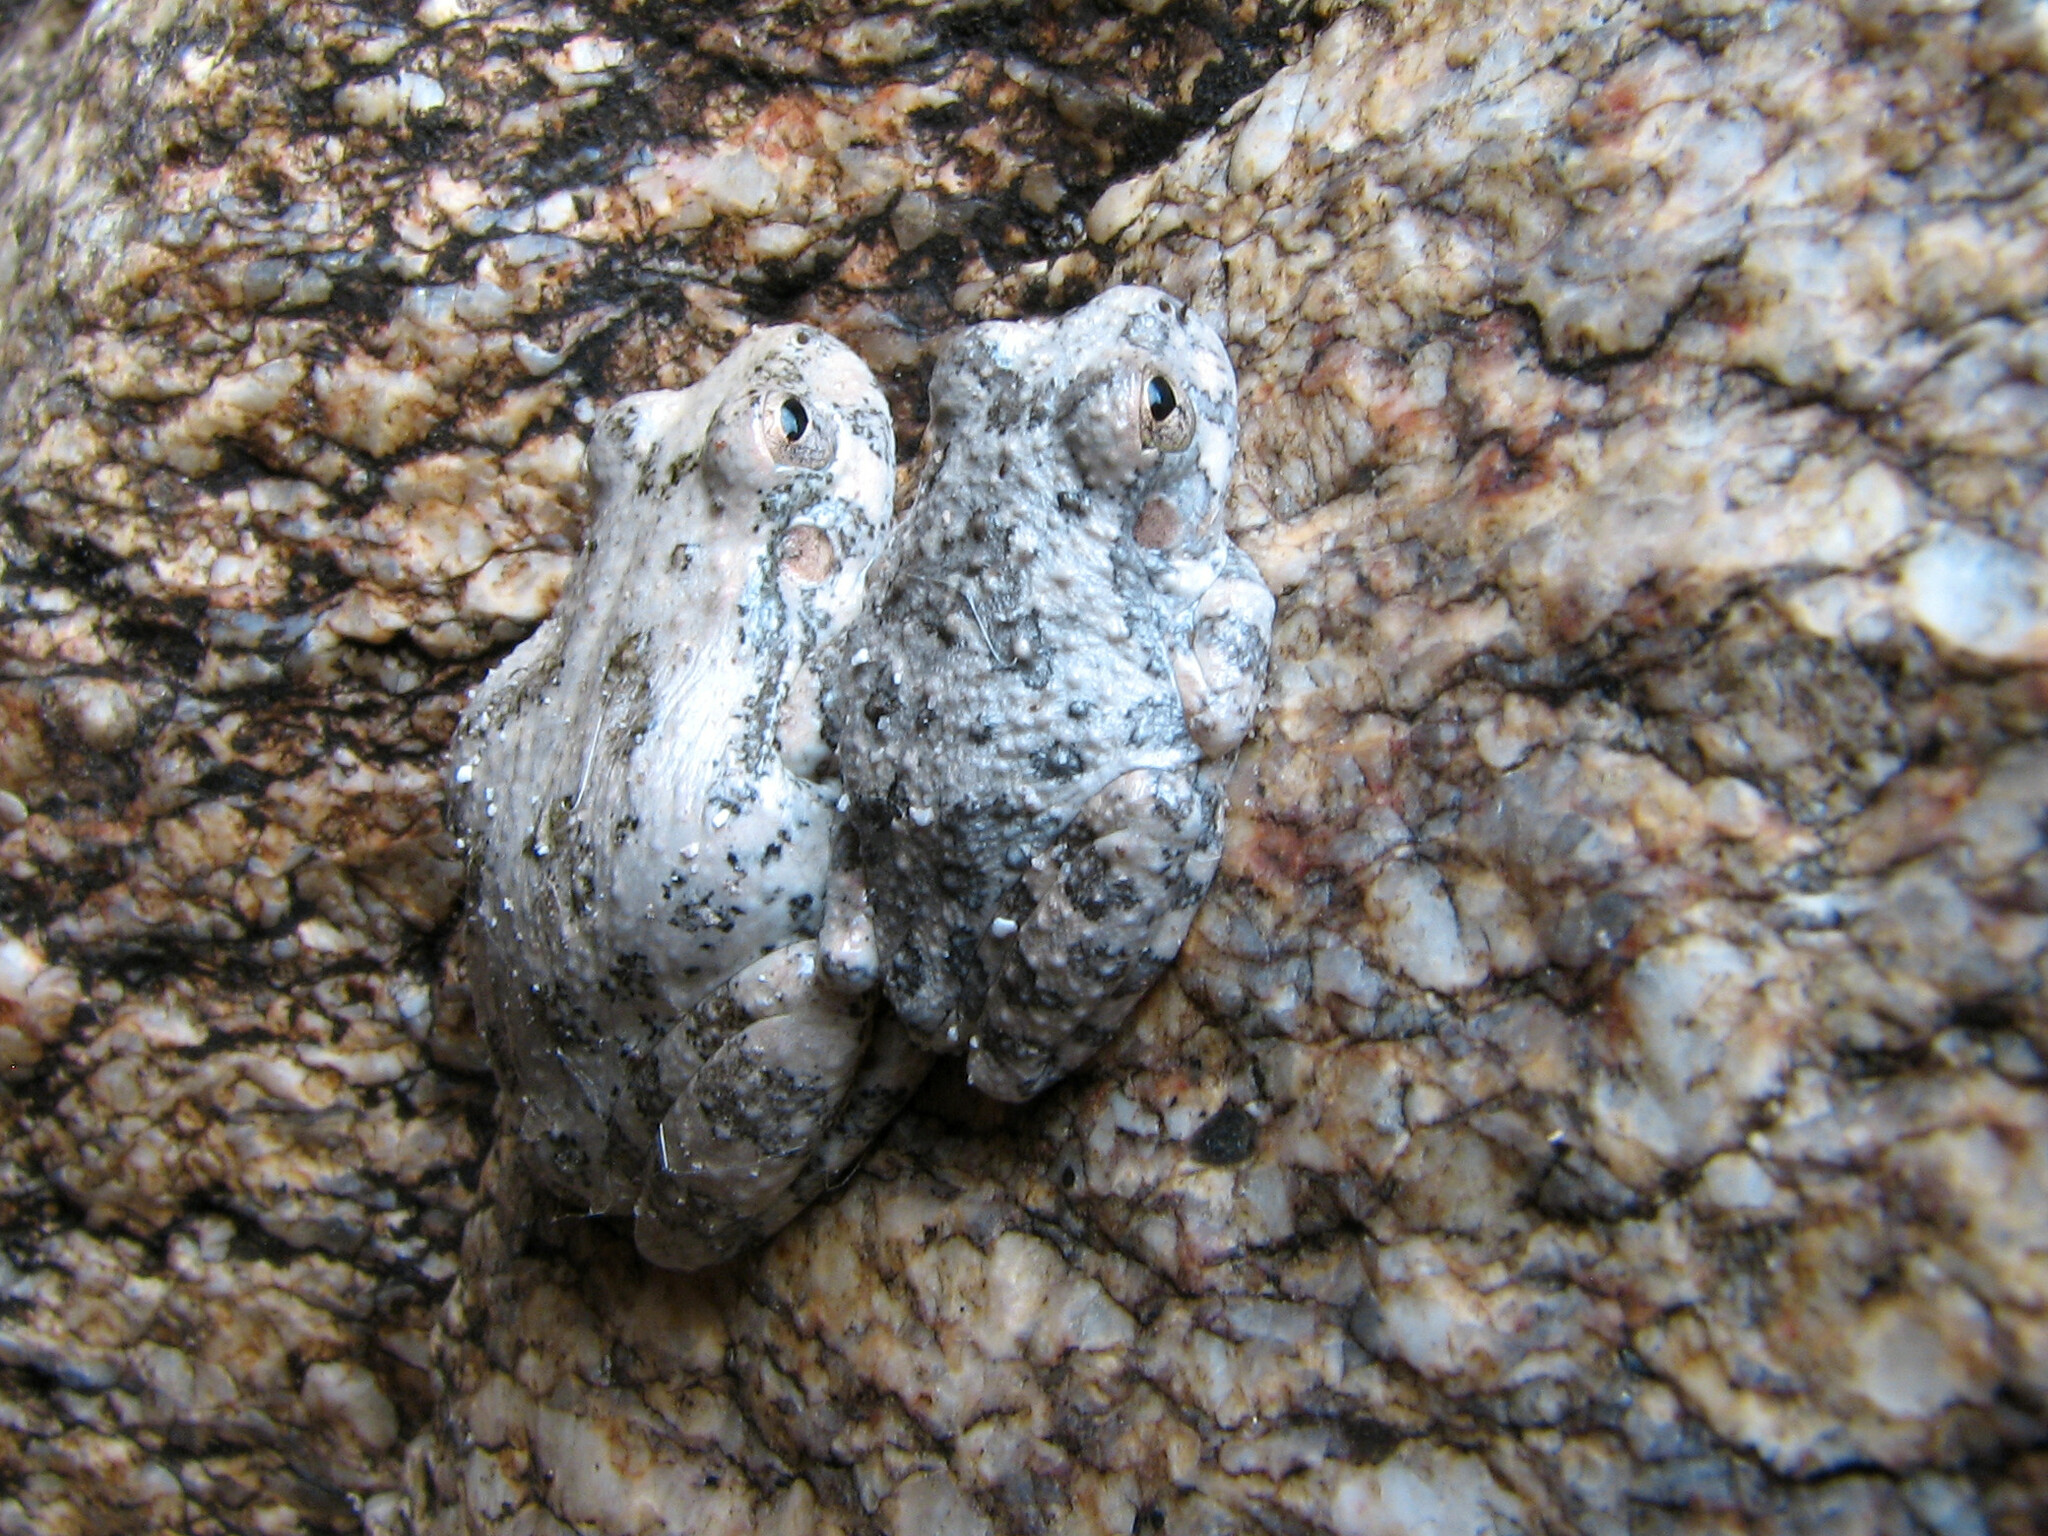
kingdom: Animalia
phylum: Chordata
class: Amphibia
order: Anura
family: Hylidae
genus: Dryophytes
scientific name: Dryophytes arenicolor
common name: Canyon treefrog
